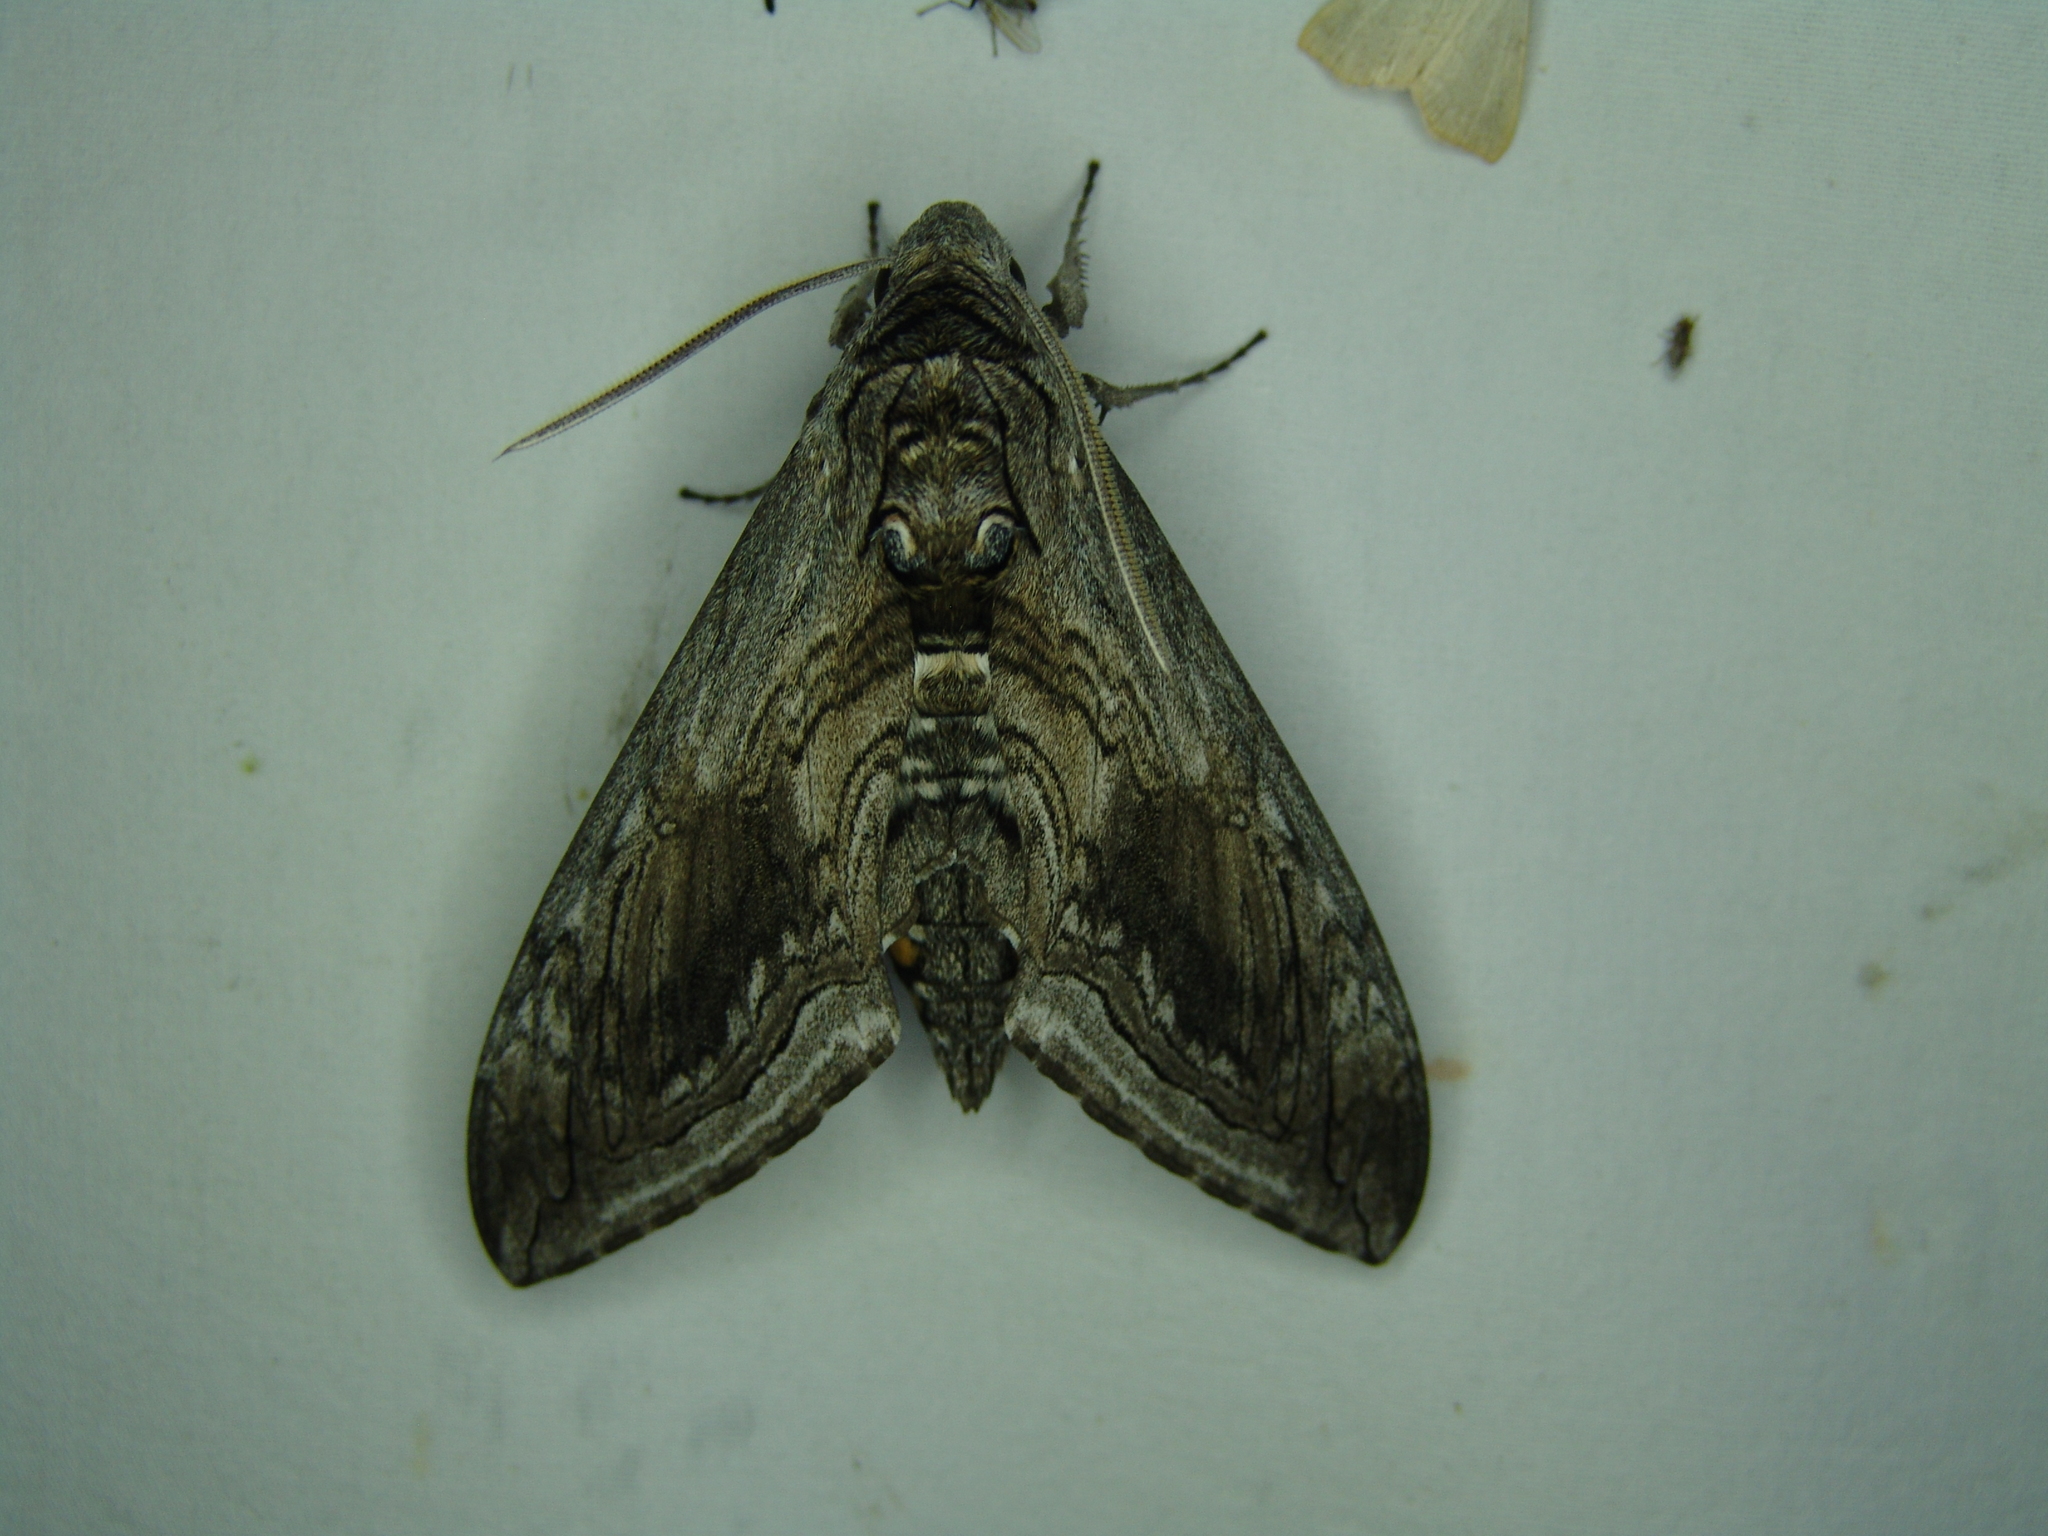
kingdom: Animalia
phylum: Arthropoda
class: Insecta
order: Lepidoptera
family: Sphingidae
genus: Manduca
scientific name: Manduca quinquemaculatus
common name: Five-spotted hawk-moth
